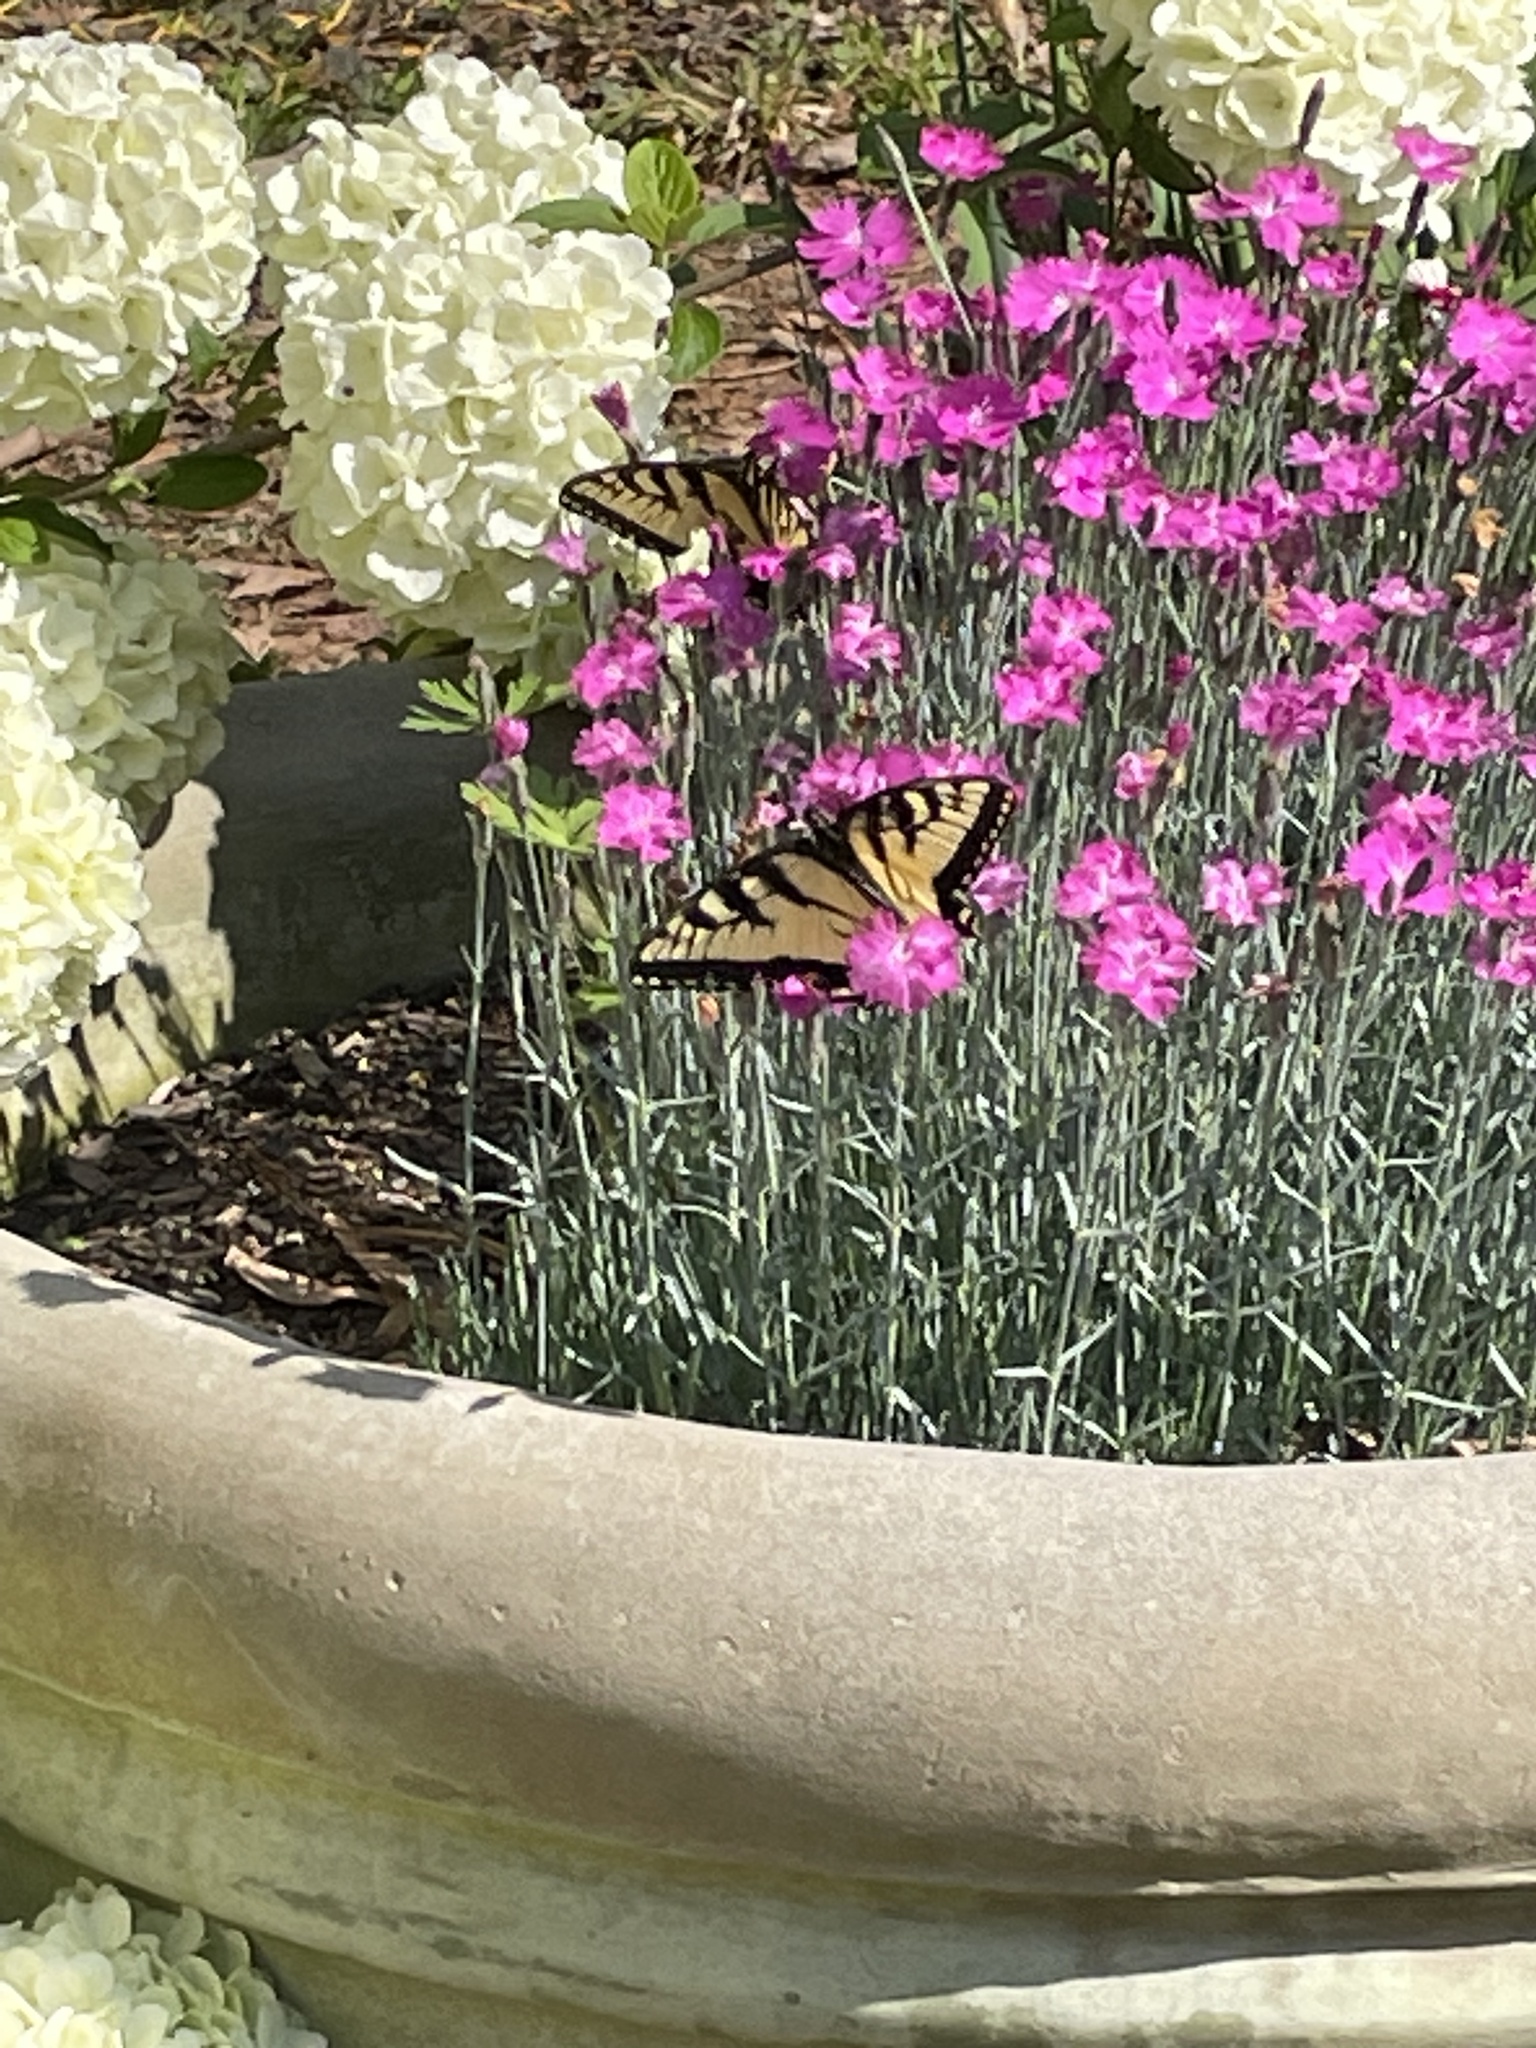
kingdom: Animalia
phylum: Arthropoda
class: Insecta
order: Lepidoptera
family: Papilionidae
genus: Papilio
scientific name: Papilio glaucus
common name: Tiger swallowtail
